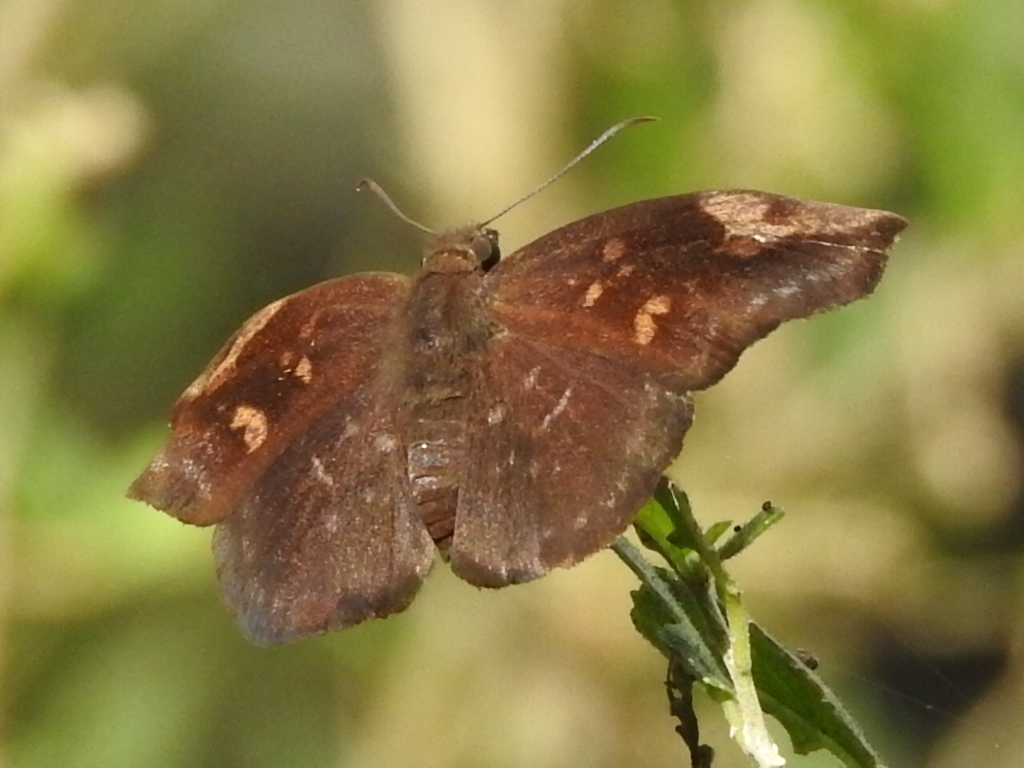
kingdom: Animalia
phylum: Arthropoda
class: Insecta
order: Lepidoptera
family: Hesperiidae
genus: Achlyodes
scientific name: Achlyodes thraso
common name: Sickle-winged skipper
